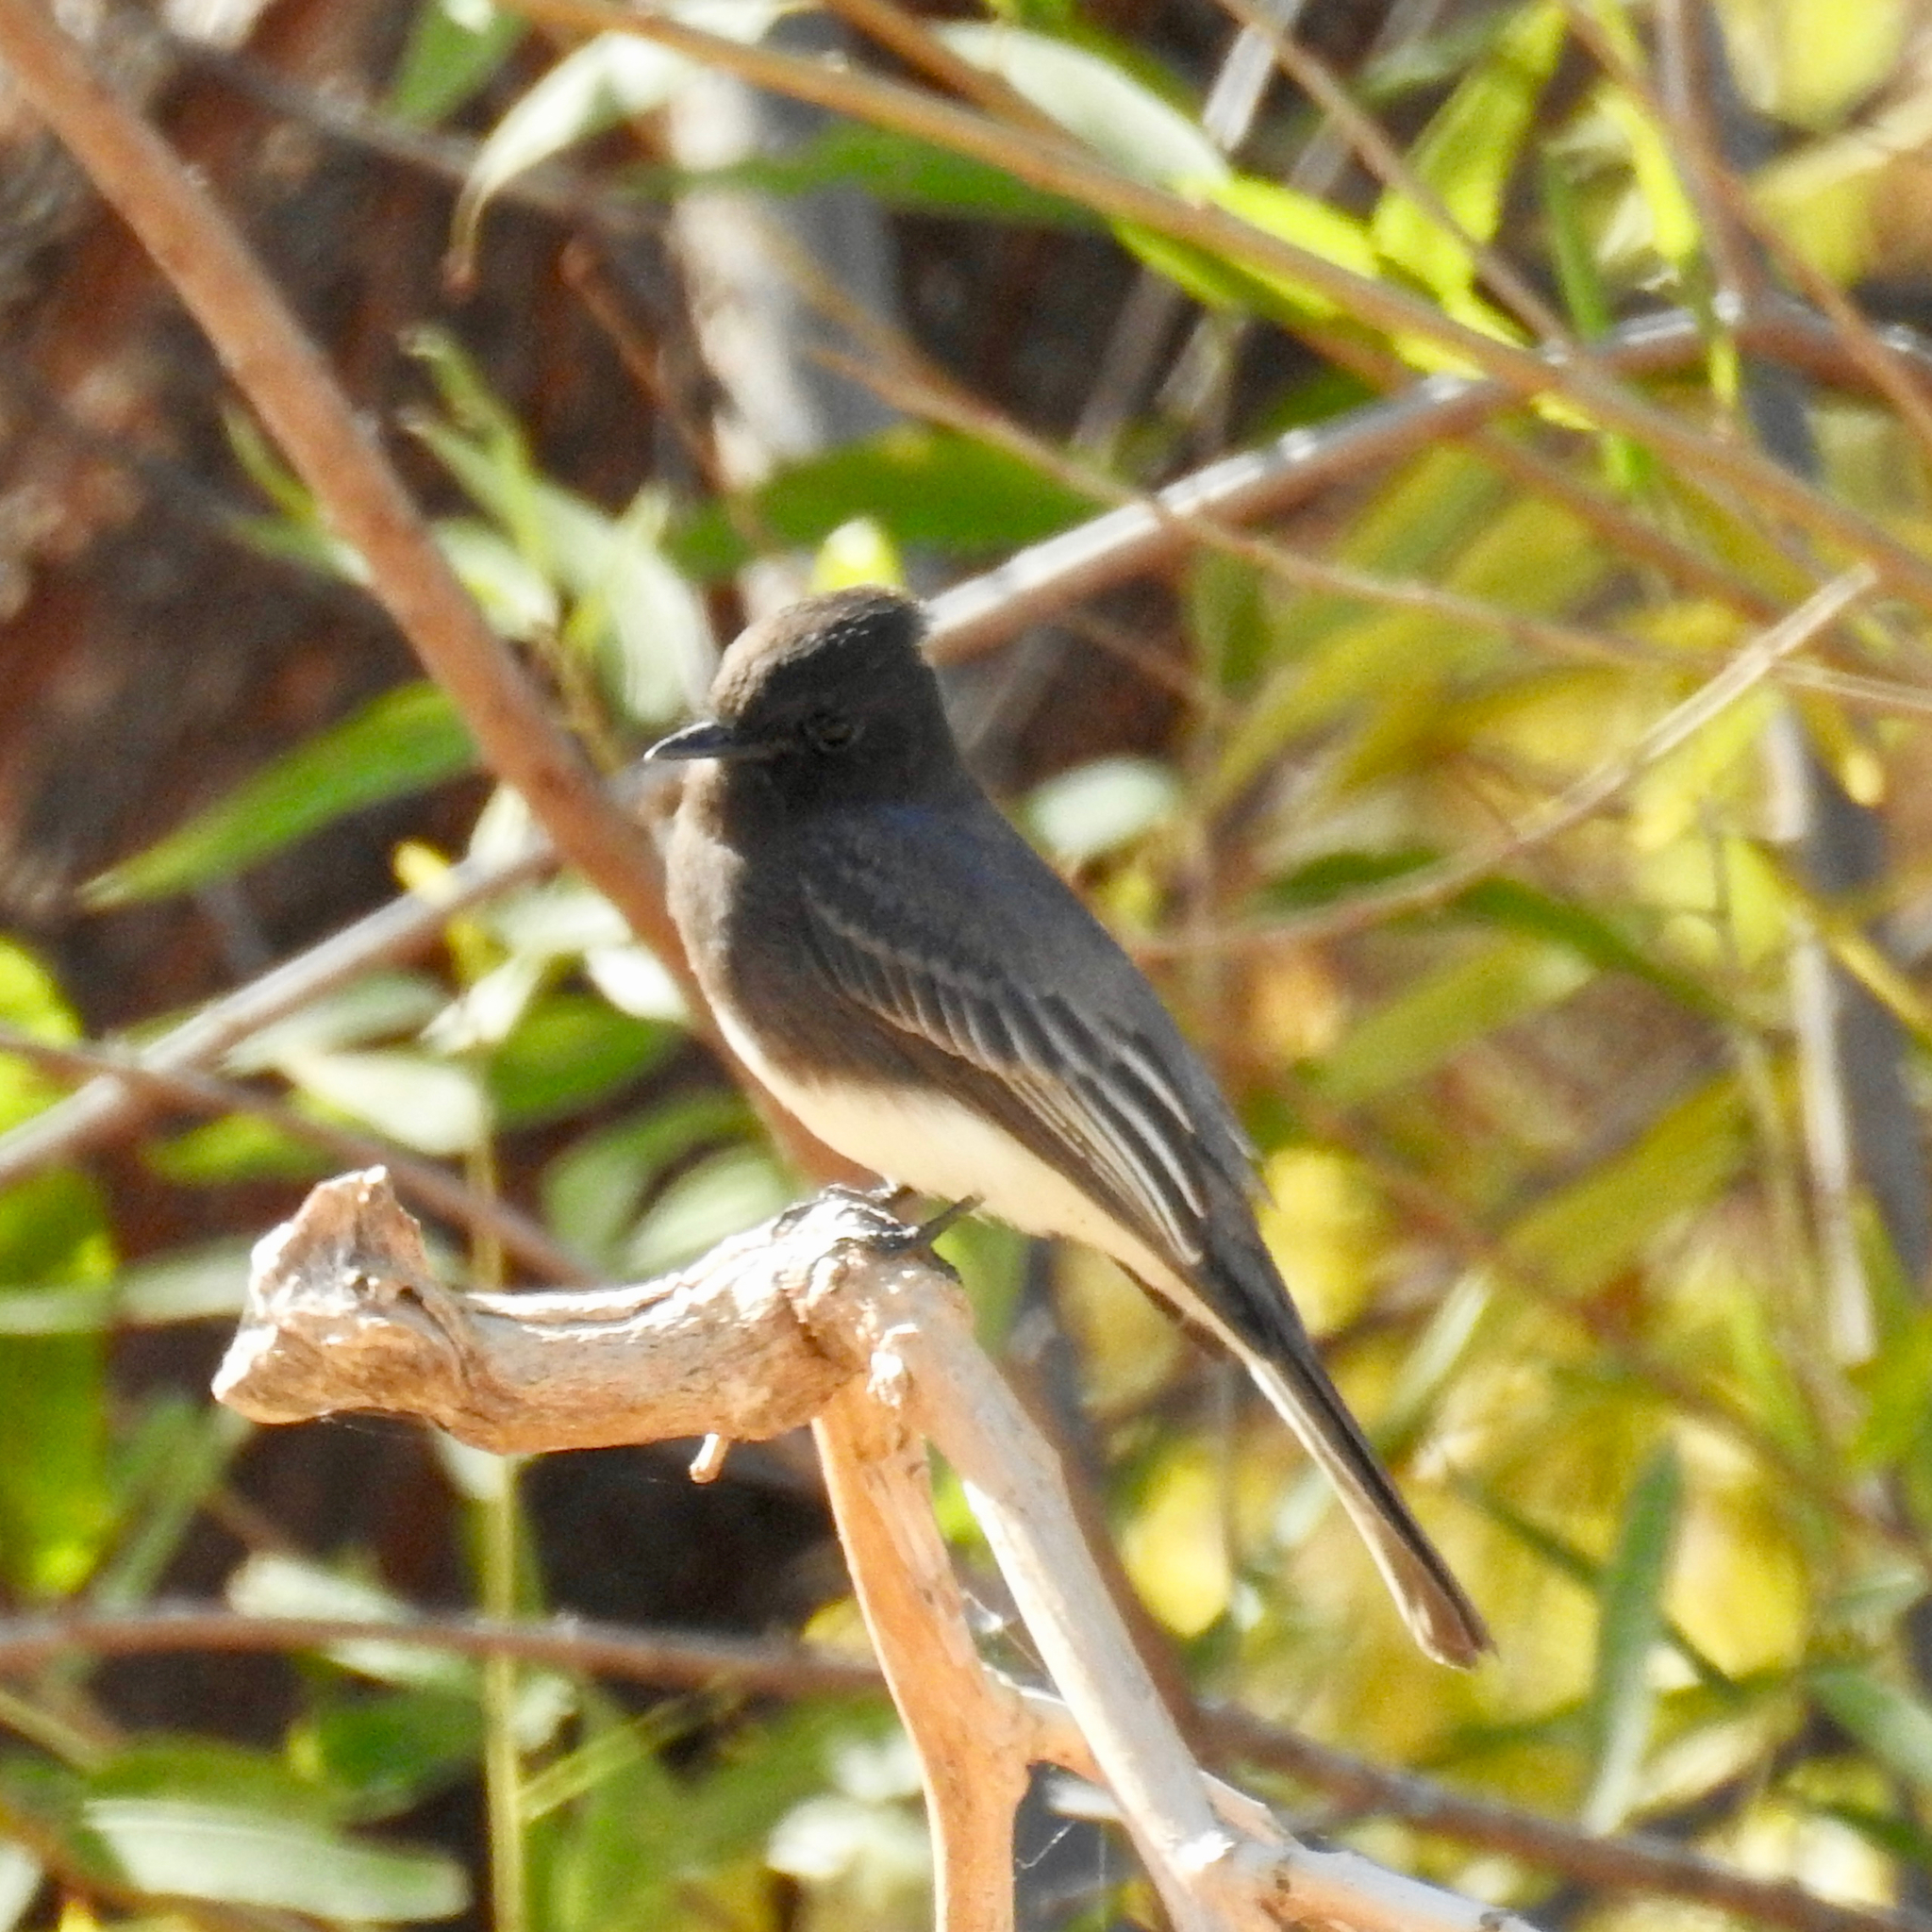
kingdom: Animalia
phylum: Chordata
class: Aves
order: Passeriformes
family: Tyrannidae
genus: Sayornis
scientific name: Sayornis nigricans
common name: Black phoebe
